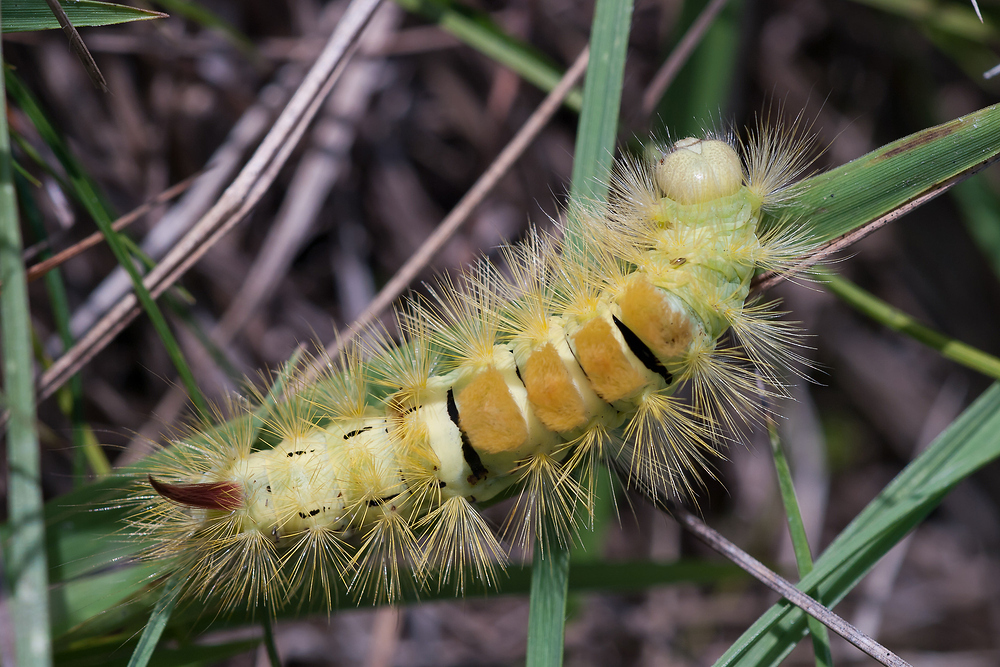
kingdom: Animalia
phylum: Arthropoda
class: Insecta
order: Lepidoptera
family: Erebidae
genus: Calliteara
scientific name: Calliteara pudibunda
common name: Pale tussock
